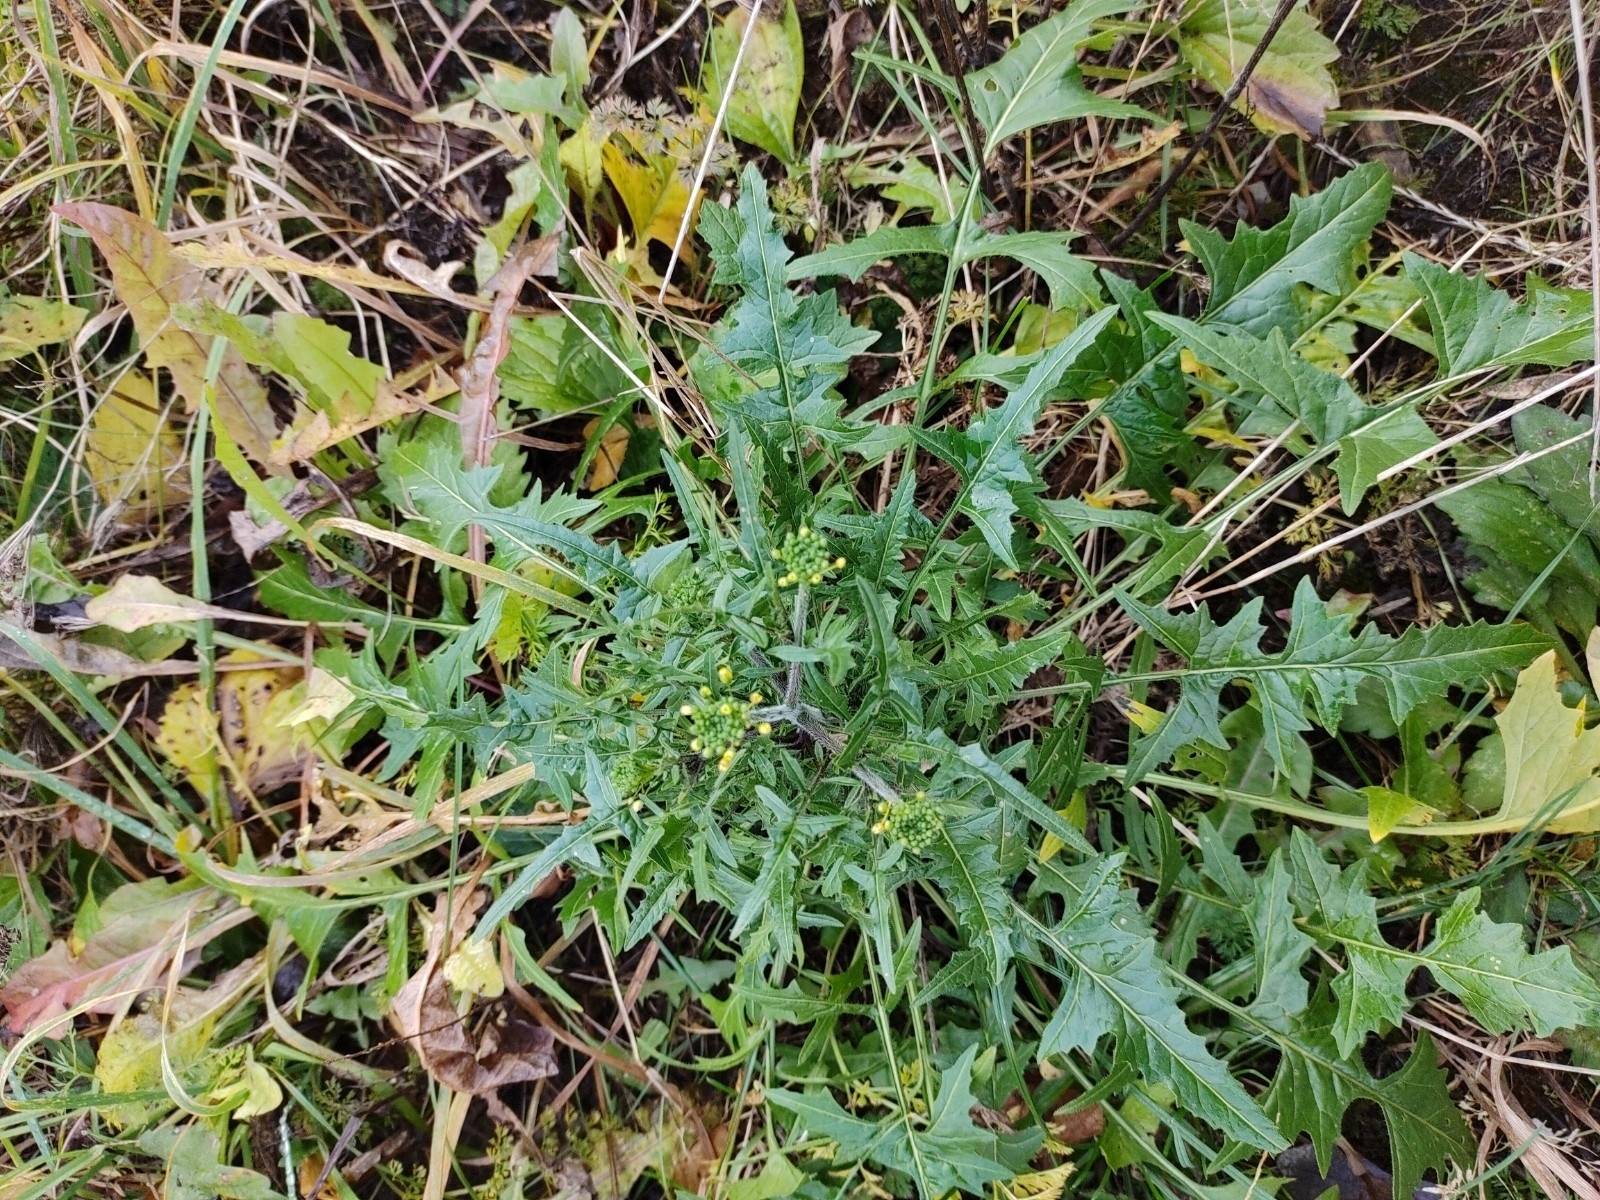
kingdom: Plantae
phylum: Tracheophyta
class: Magnoliopsida
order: Brassicales
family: Brassicaceae
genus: Sisymbrium
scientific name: Sisymbrium loeselii
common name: False london-rocket
